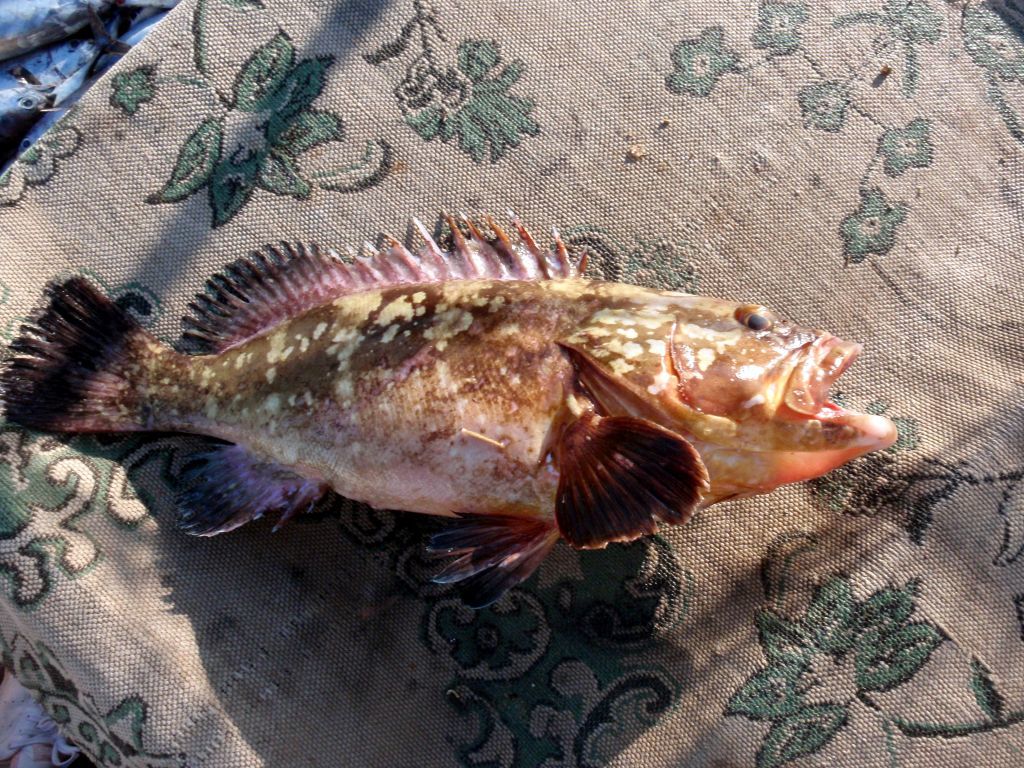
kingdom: Animalia
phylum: Chordata
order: Perciformes
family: Serranidae
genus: Epinephelus
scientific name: Epinephelus marginatus
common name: Dusky grouper
